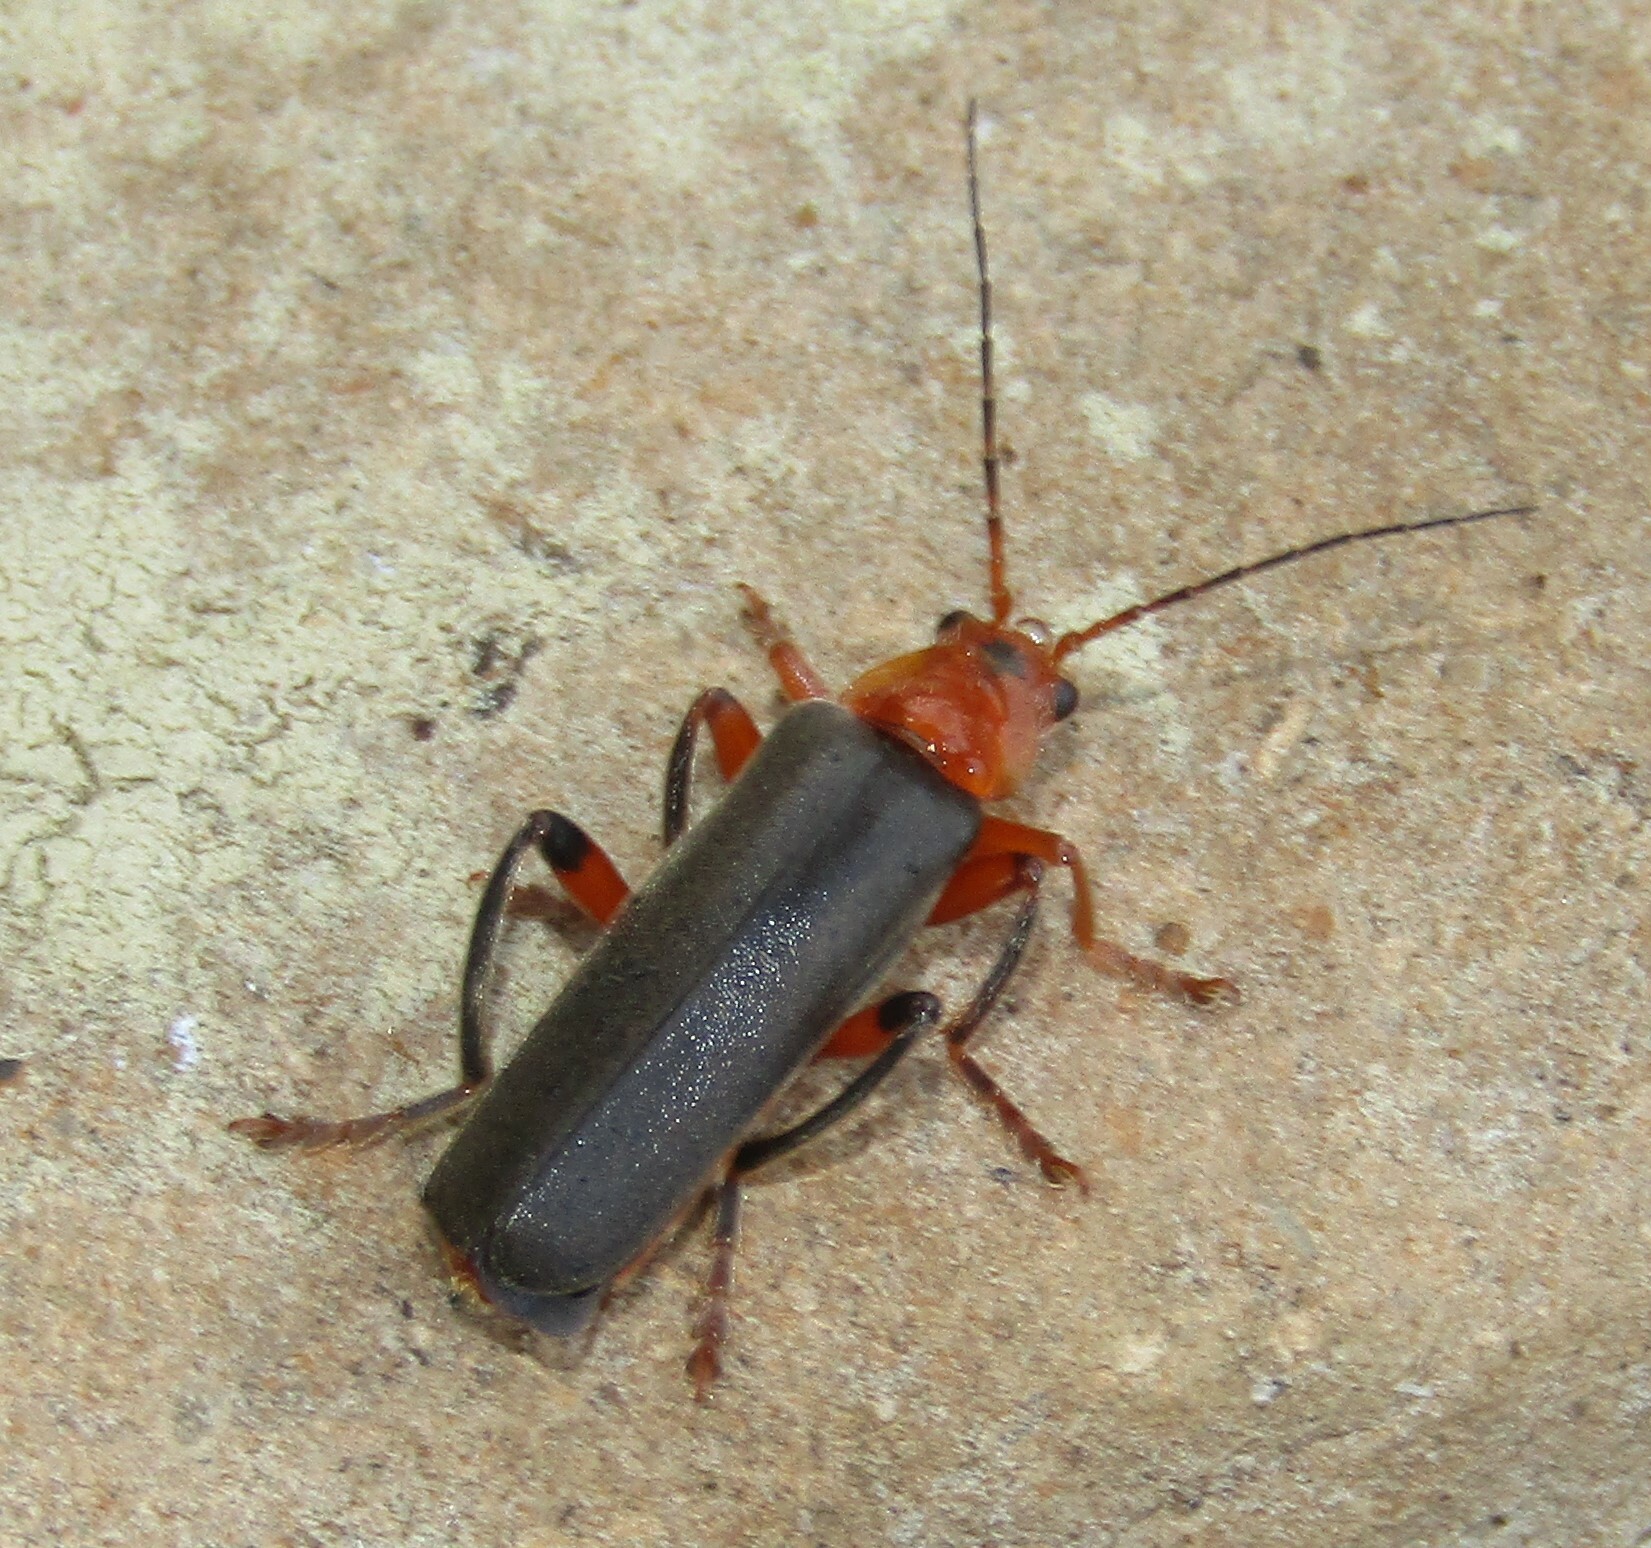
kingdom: Animalia
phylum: Arthropoda
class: Insecta
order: Coleoptera
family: Cantharidae
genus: Cantharis
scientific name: Cantharis livida
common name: Livid soldier beetle
